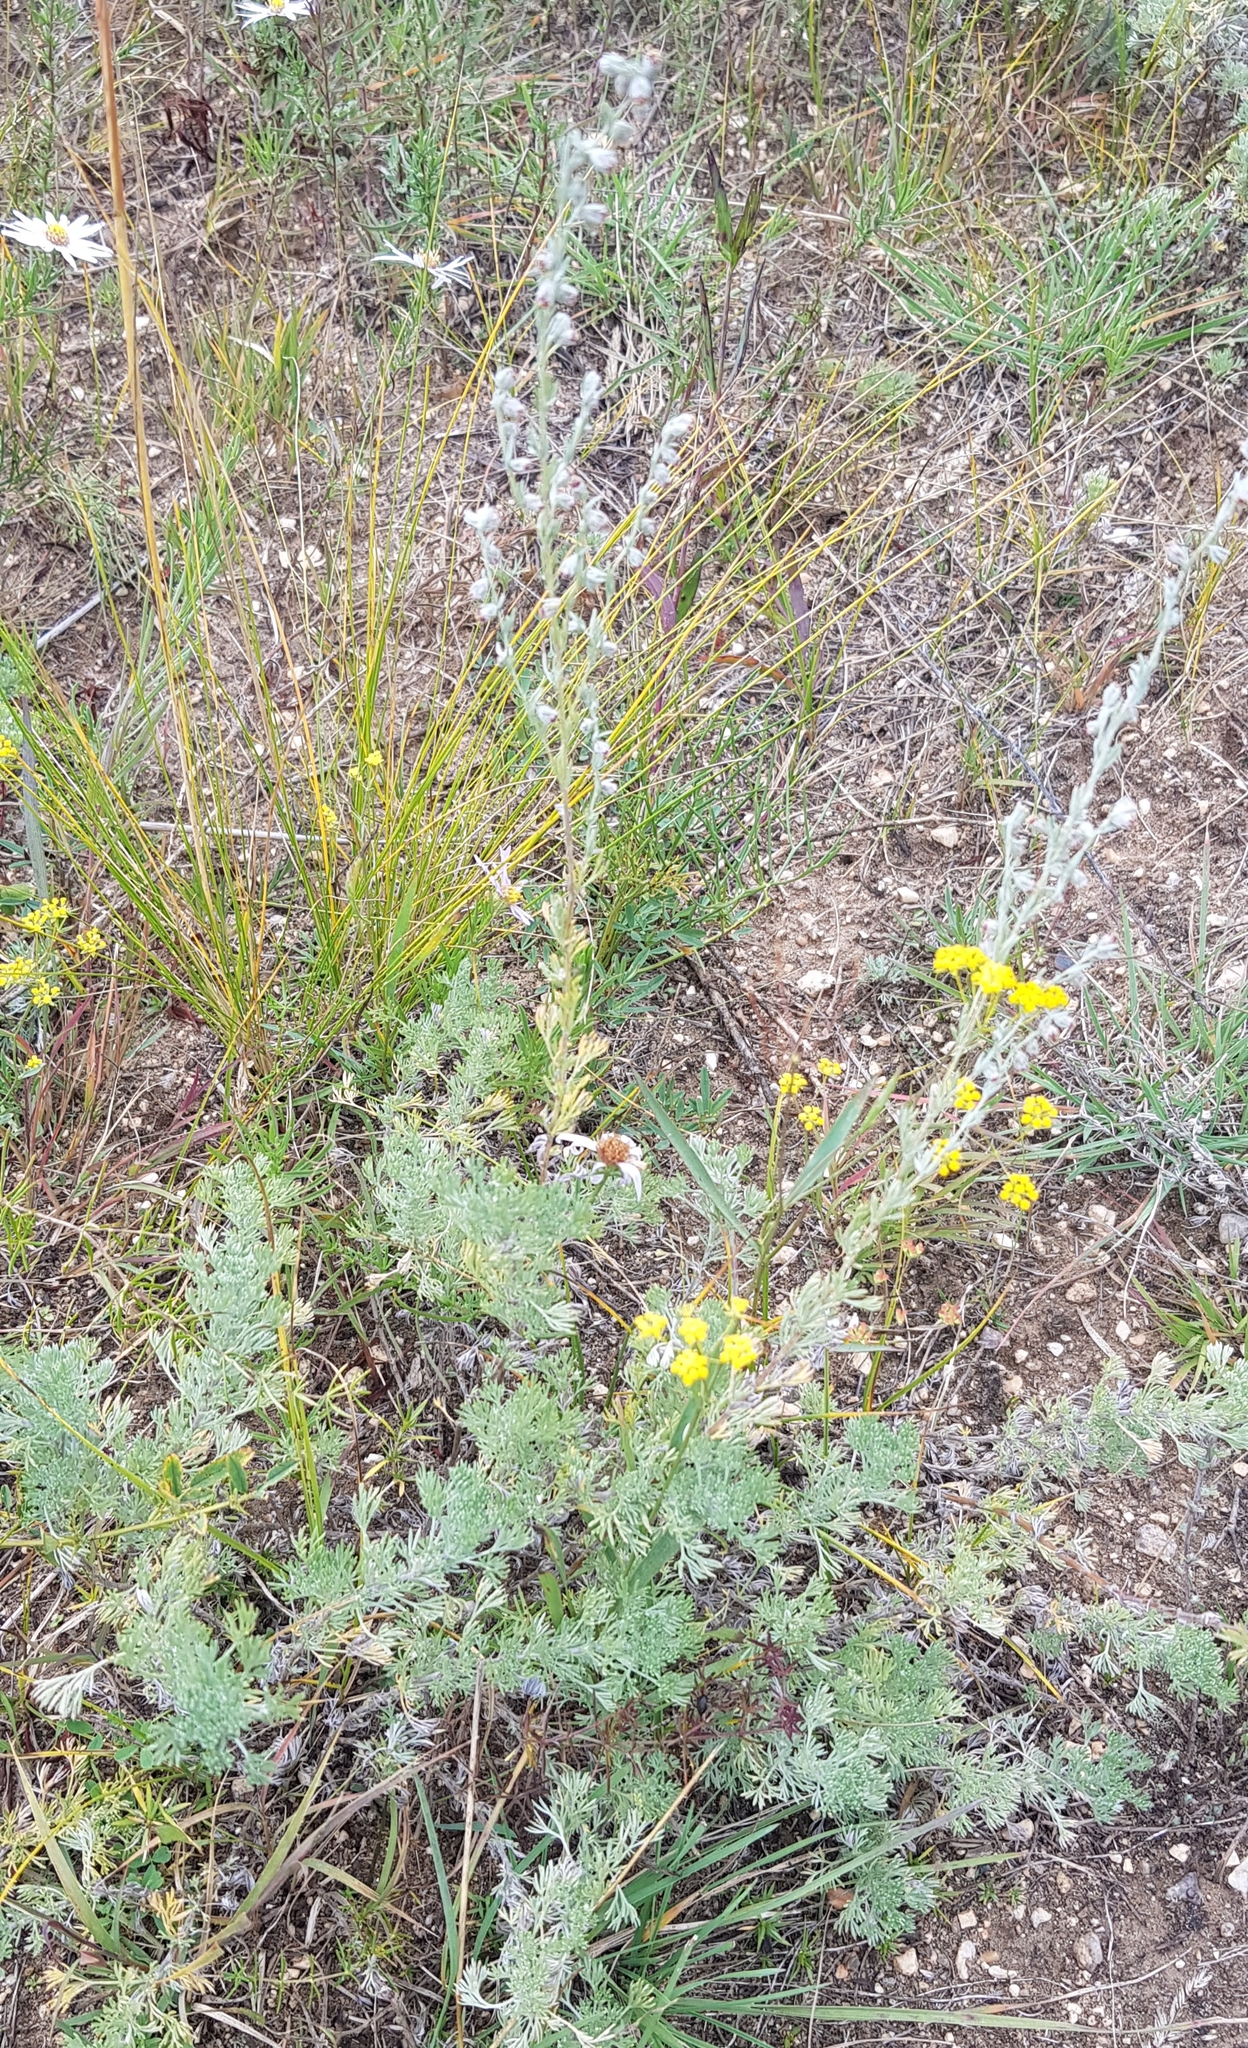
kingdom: Plantae
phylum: Tracheophyta
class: Magnoliopsida
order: Asterales
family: Asteraceae
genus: Artemisia
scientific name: Artemisia frigida
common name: Prairie sagewort
